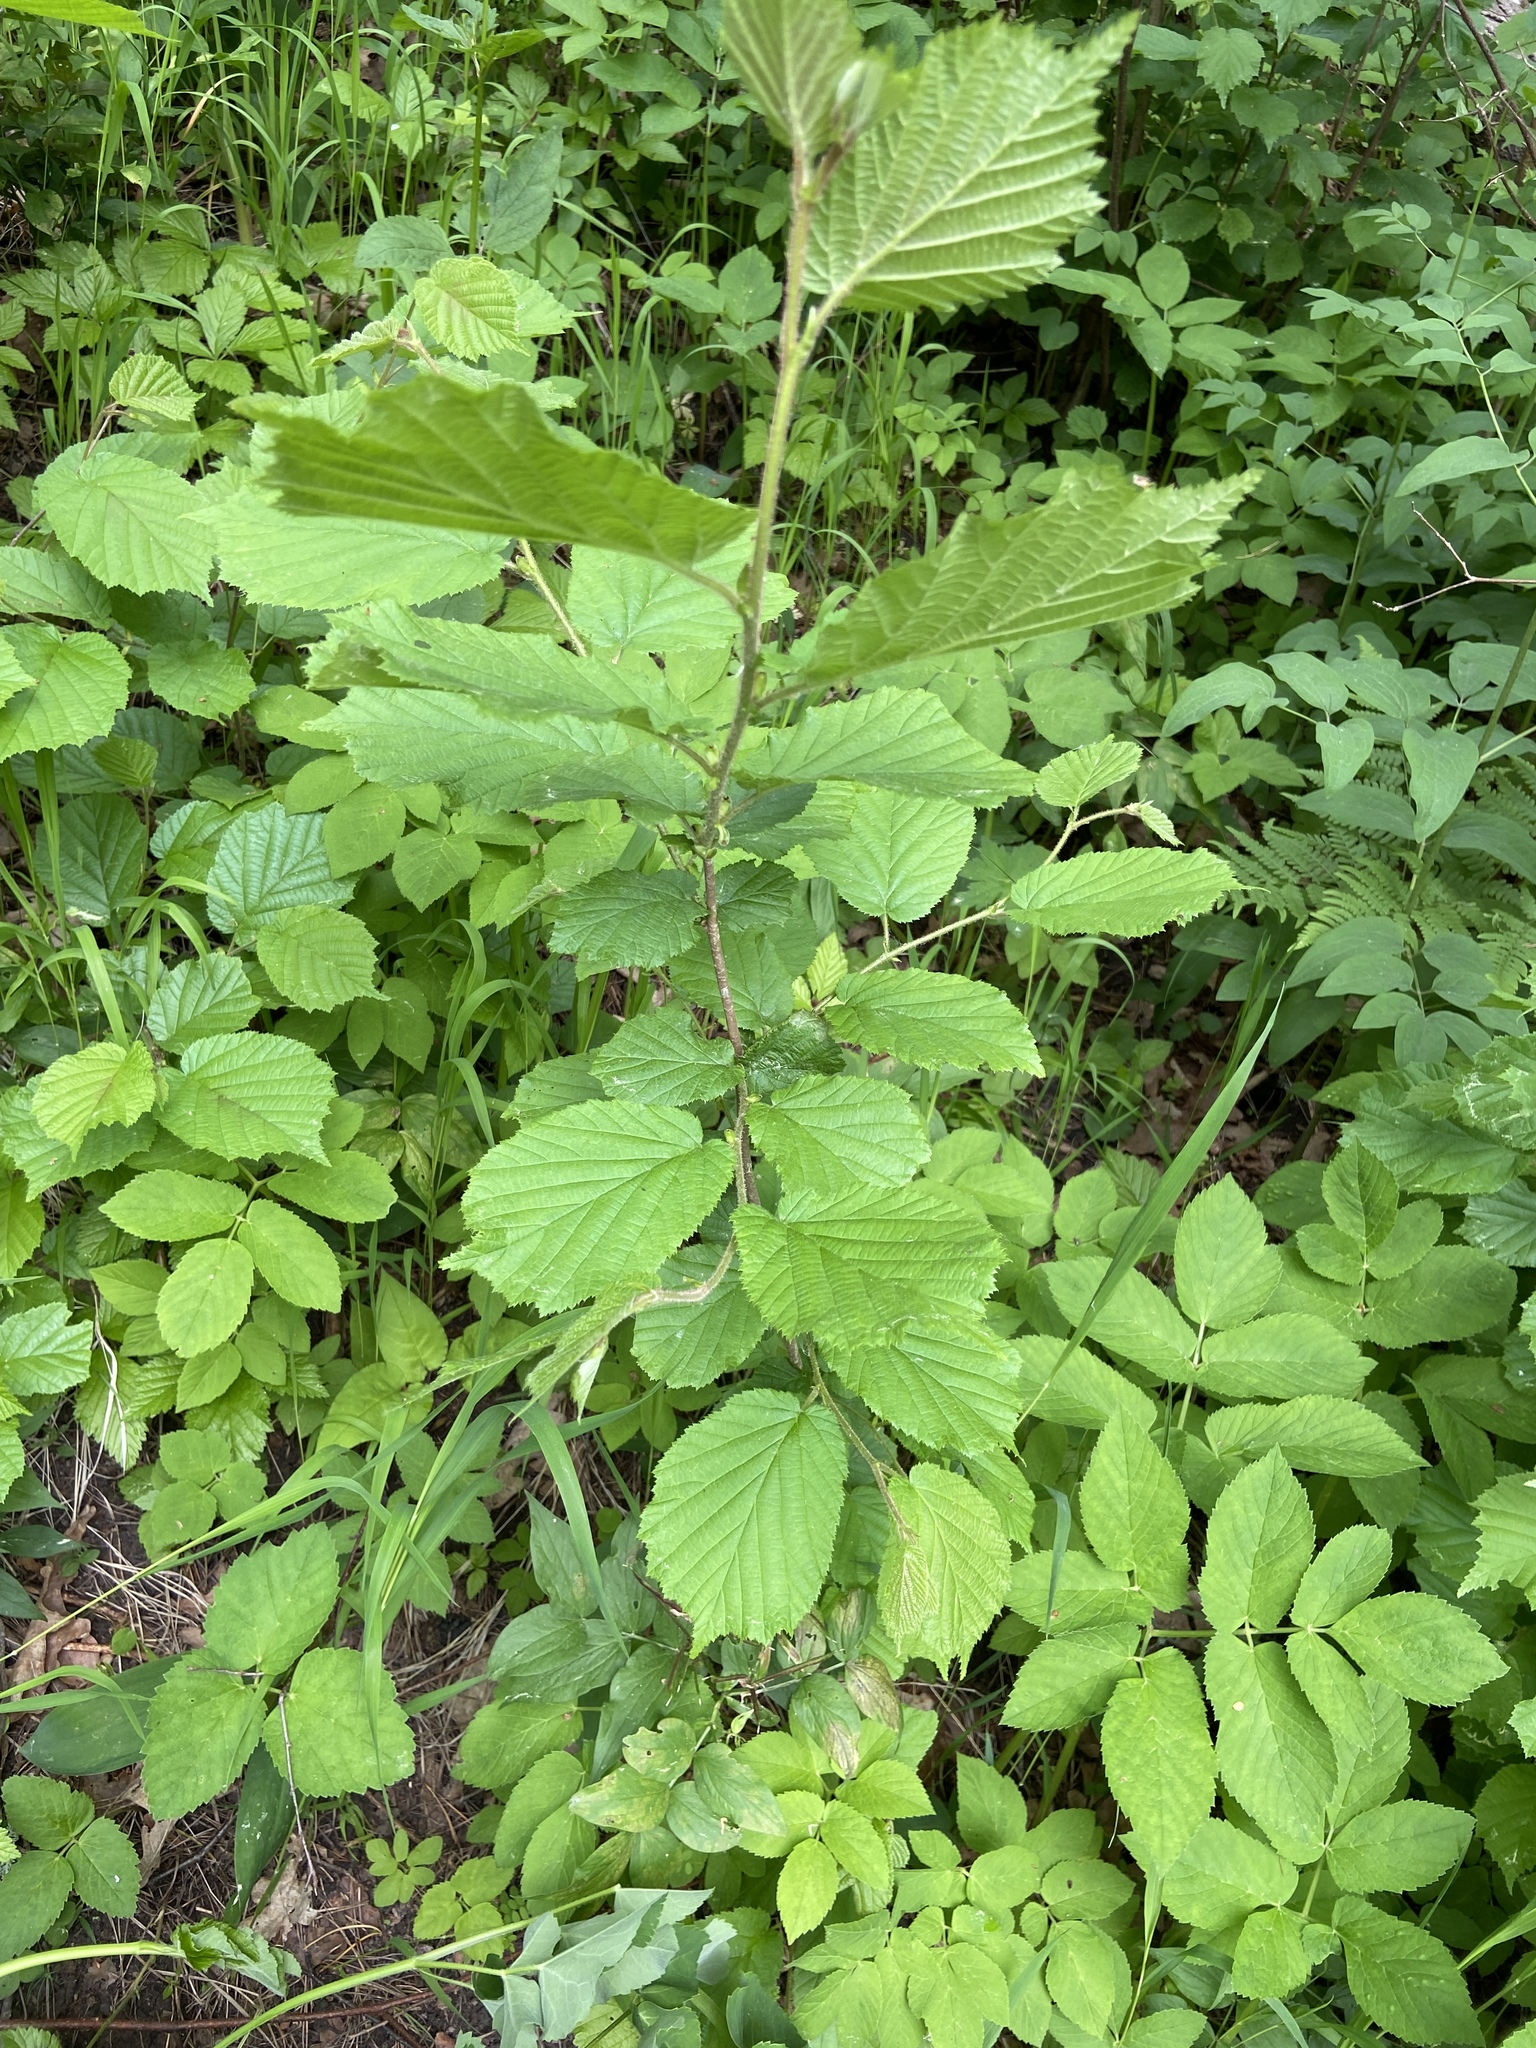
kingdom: Plantae
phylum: Tracheophyta
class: Magnoliopsida
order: Fagales
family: Betulaceae
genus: Corylus
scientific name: Corylus avellana
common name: European hazel
